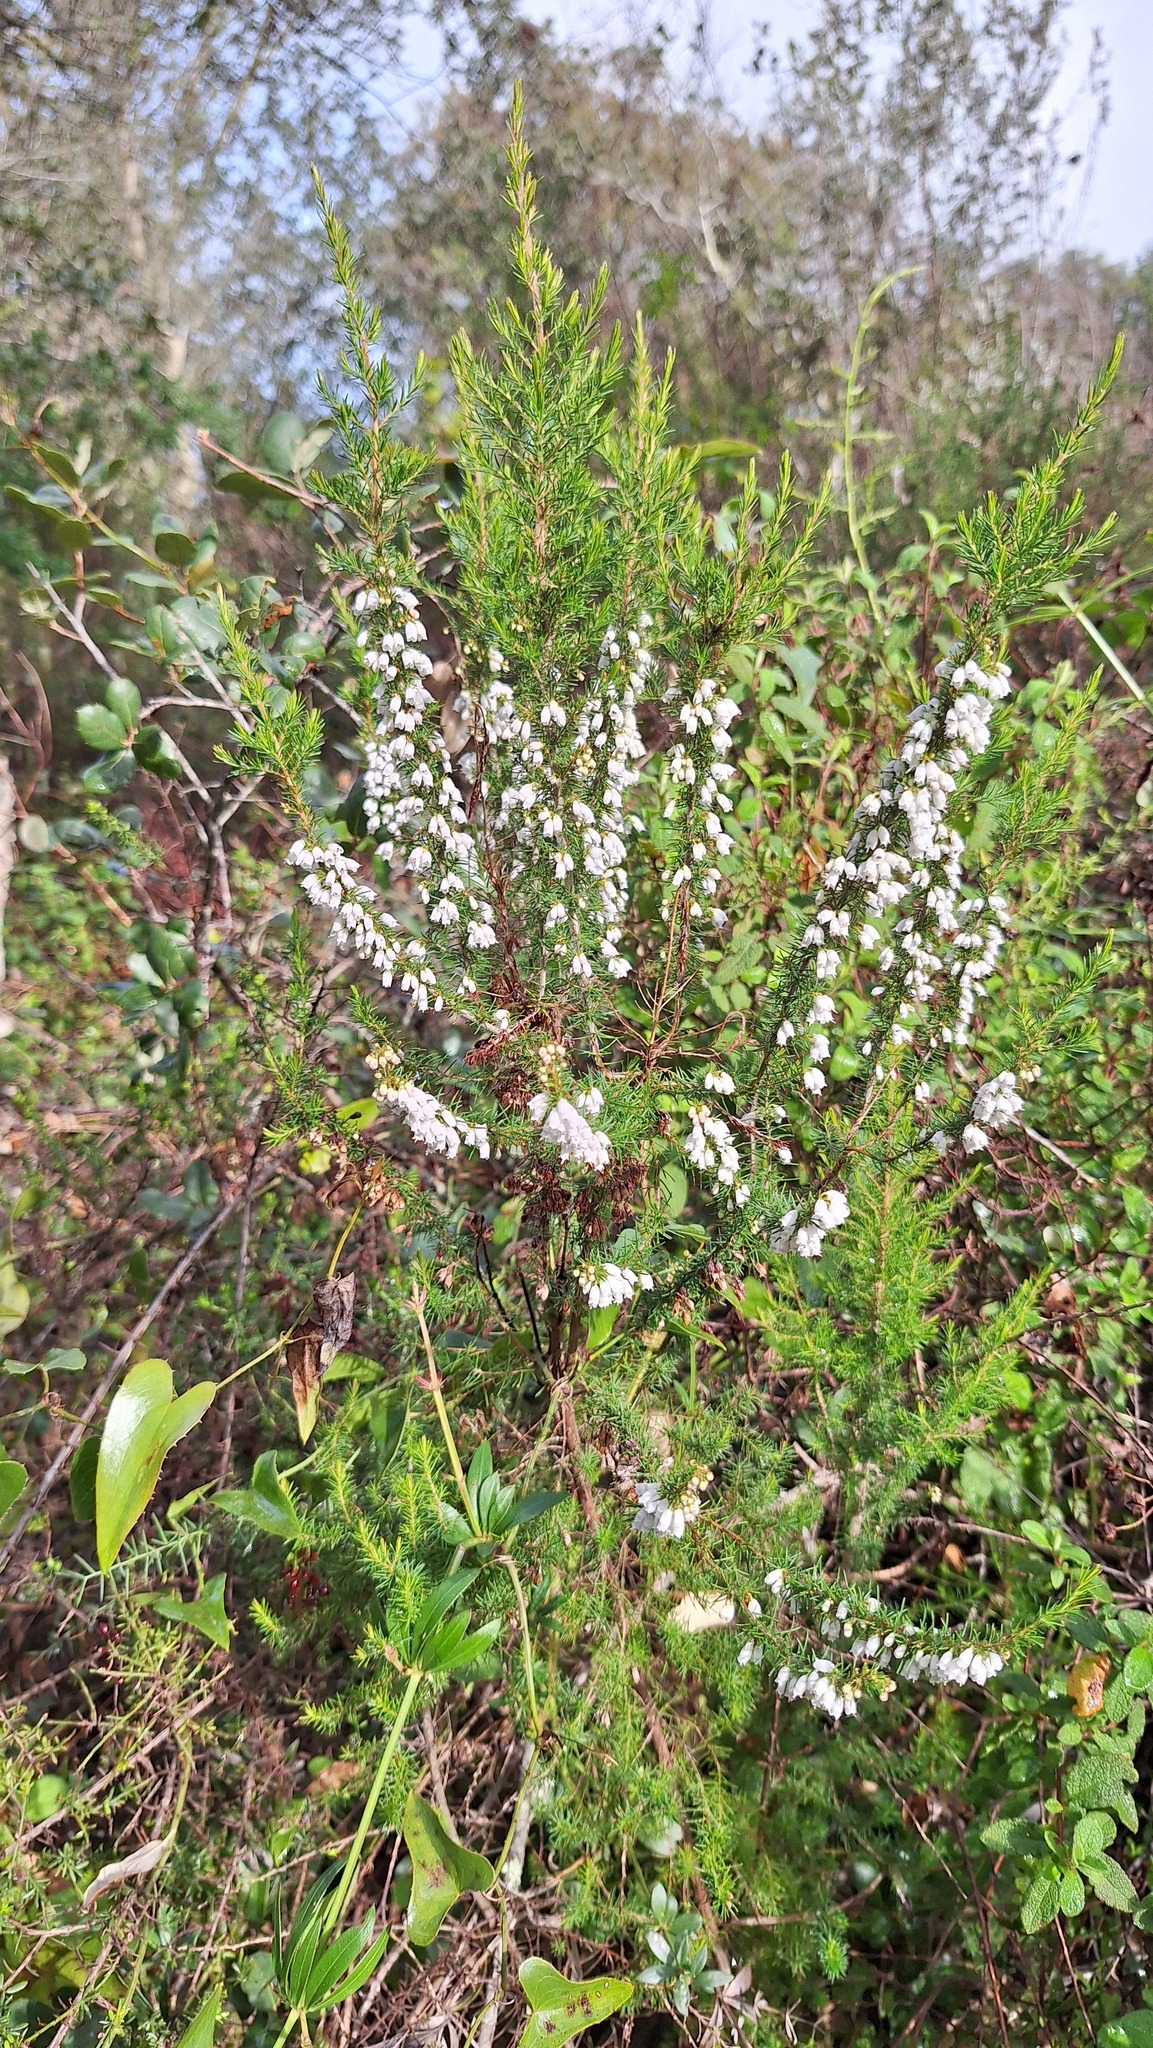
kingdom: Plantae
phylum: Tracheophyta
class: Magnoliopsida
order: Ericales
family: Ericaceae
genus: Erica
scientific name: Erica lusitanica
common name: Spanish heath
